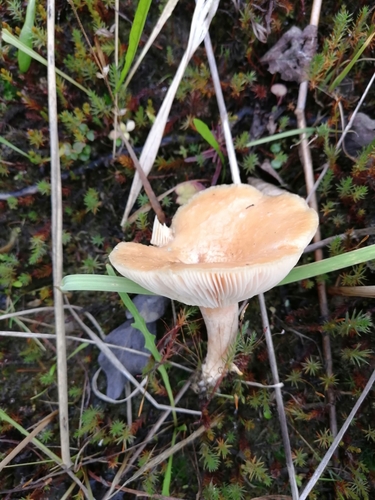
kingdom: Fungi
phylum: Basidiomycota
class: Agaricomycetes
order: Russulales
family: Russulaceae
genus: Lactarius
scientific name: Lactarius
